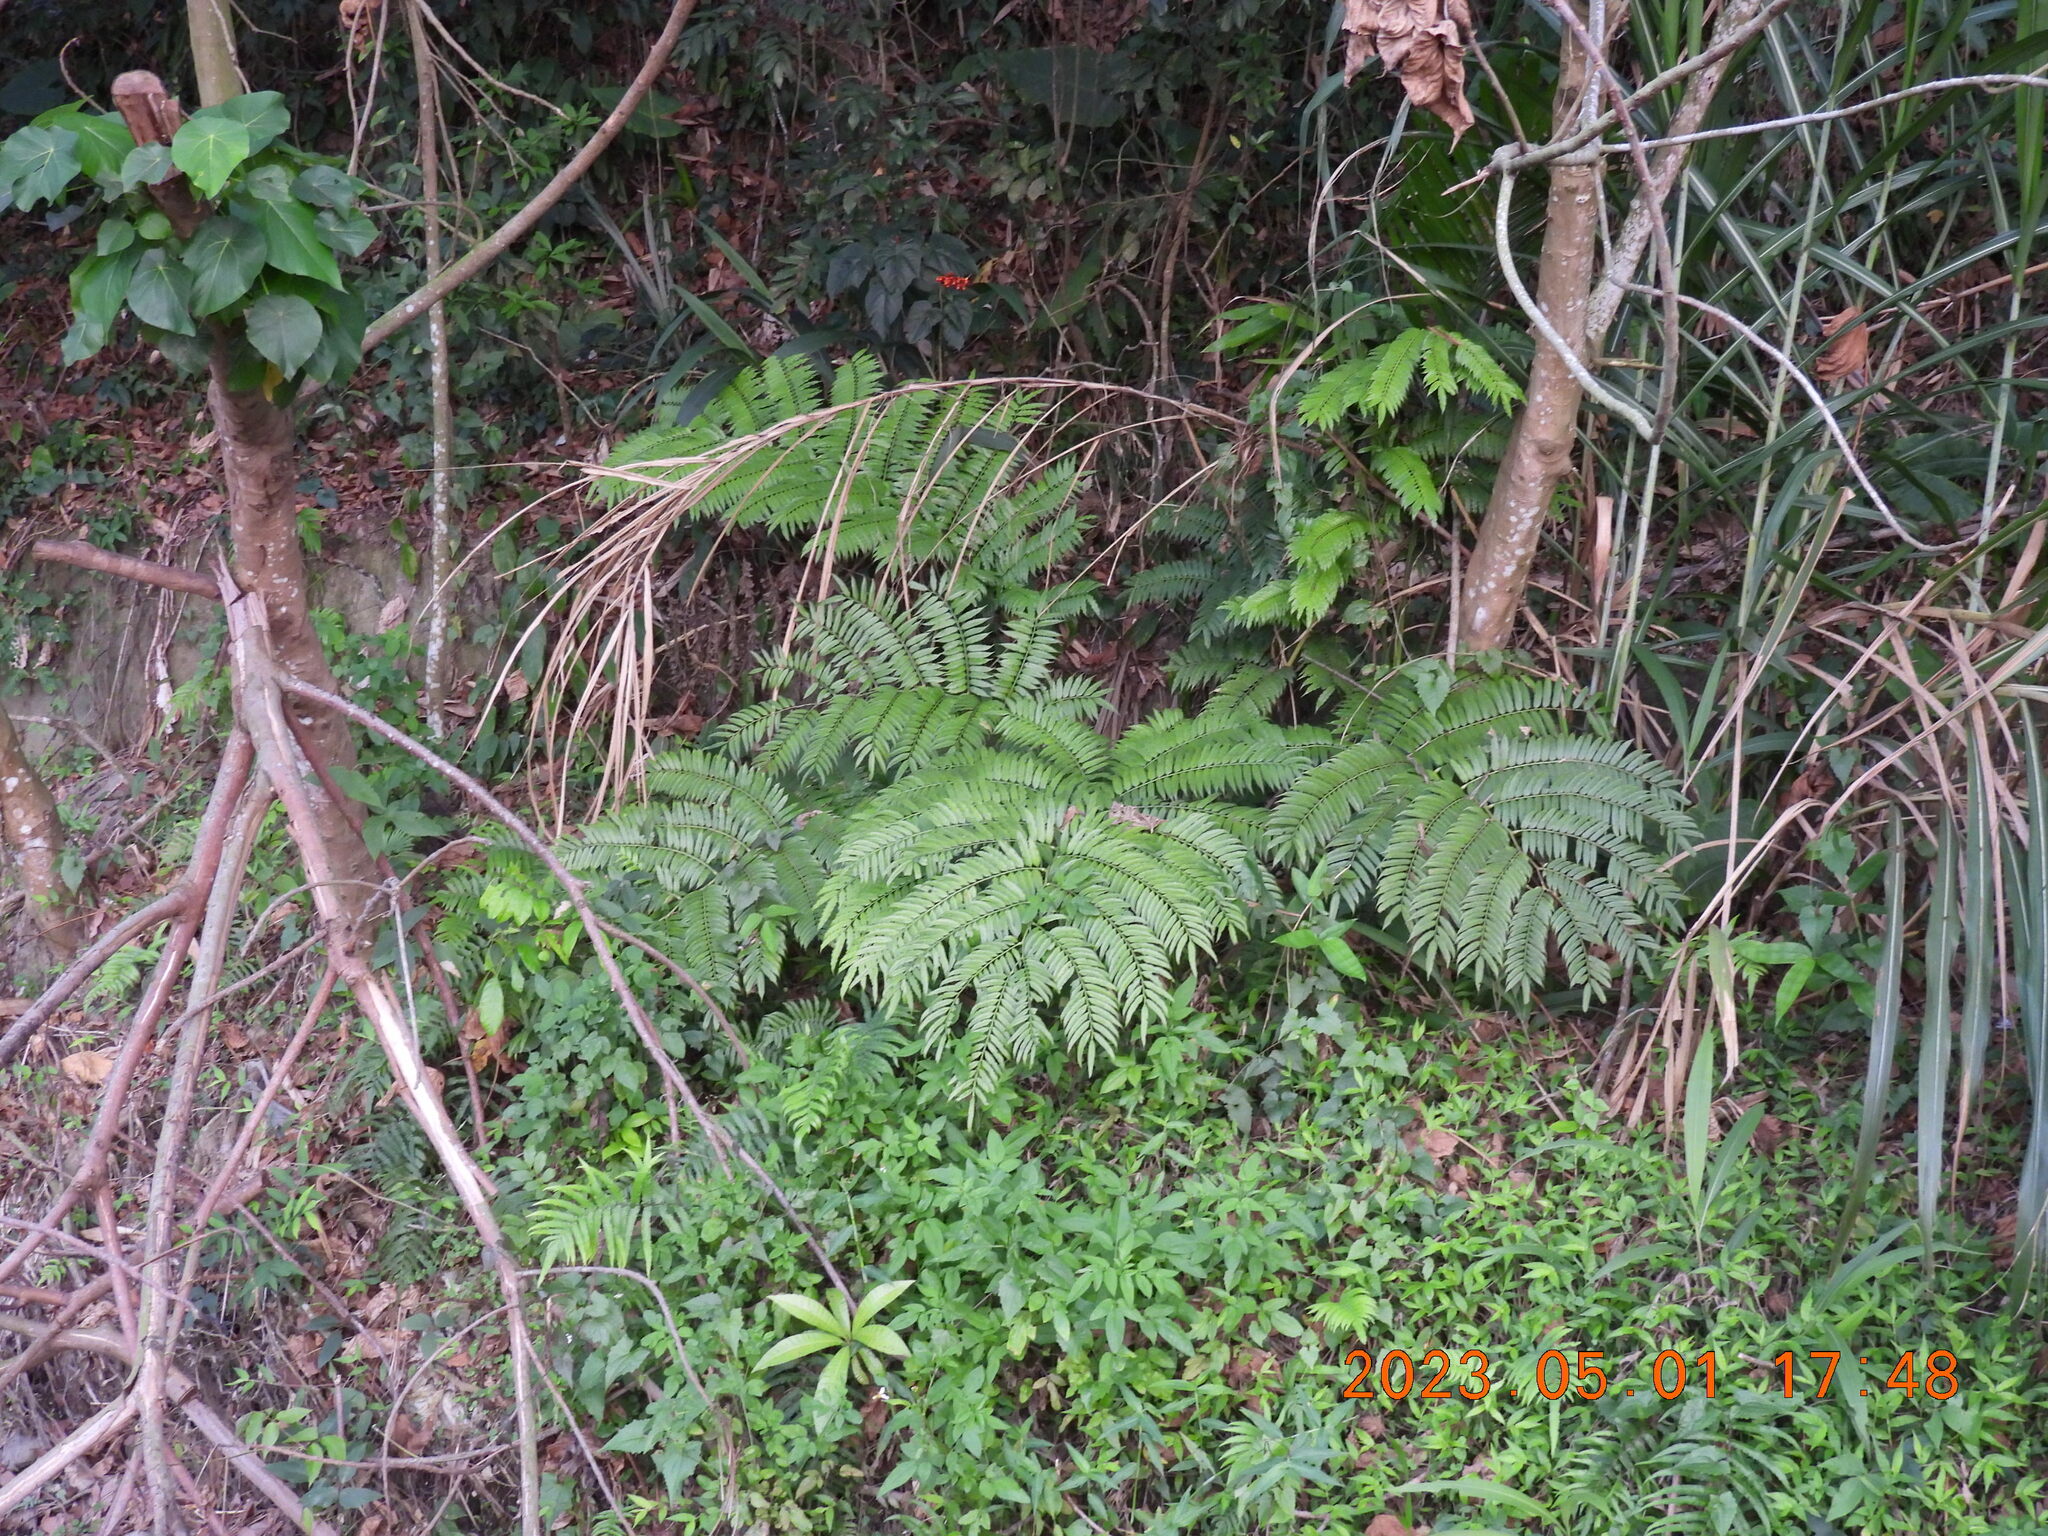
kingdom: Plantae
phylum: Tracheophyta
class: Polypodiopsida
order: Marattiales
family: Marattiaceae
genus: Angiopteris
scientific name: Angiopteris lygodiifolia
